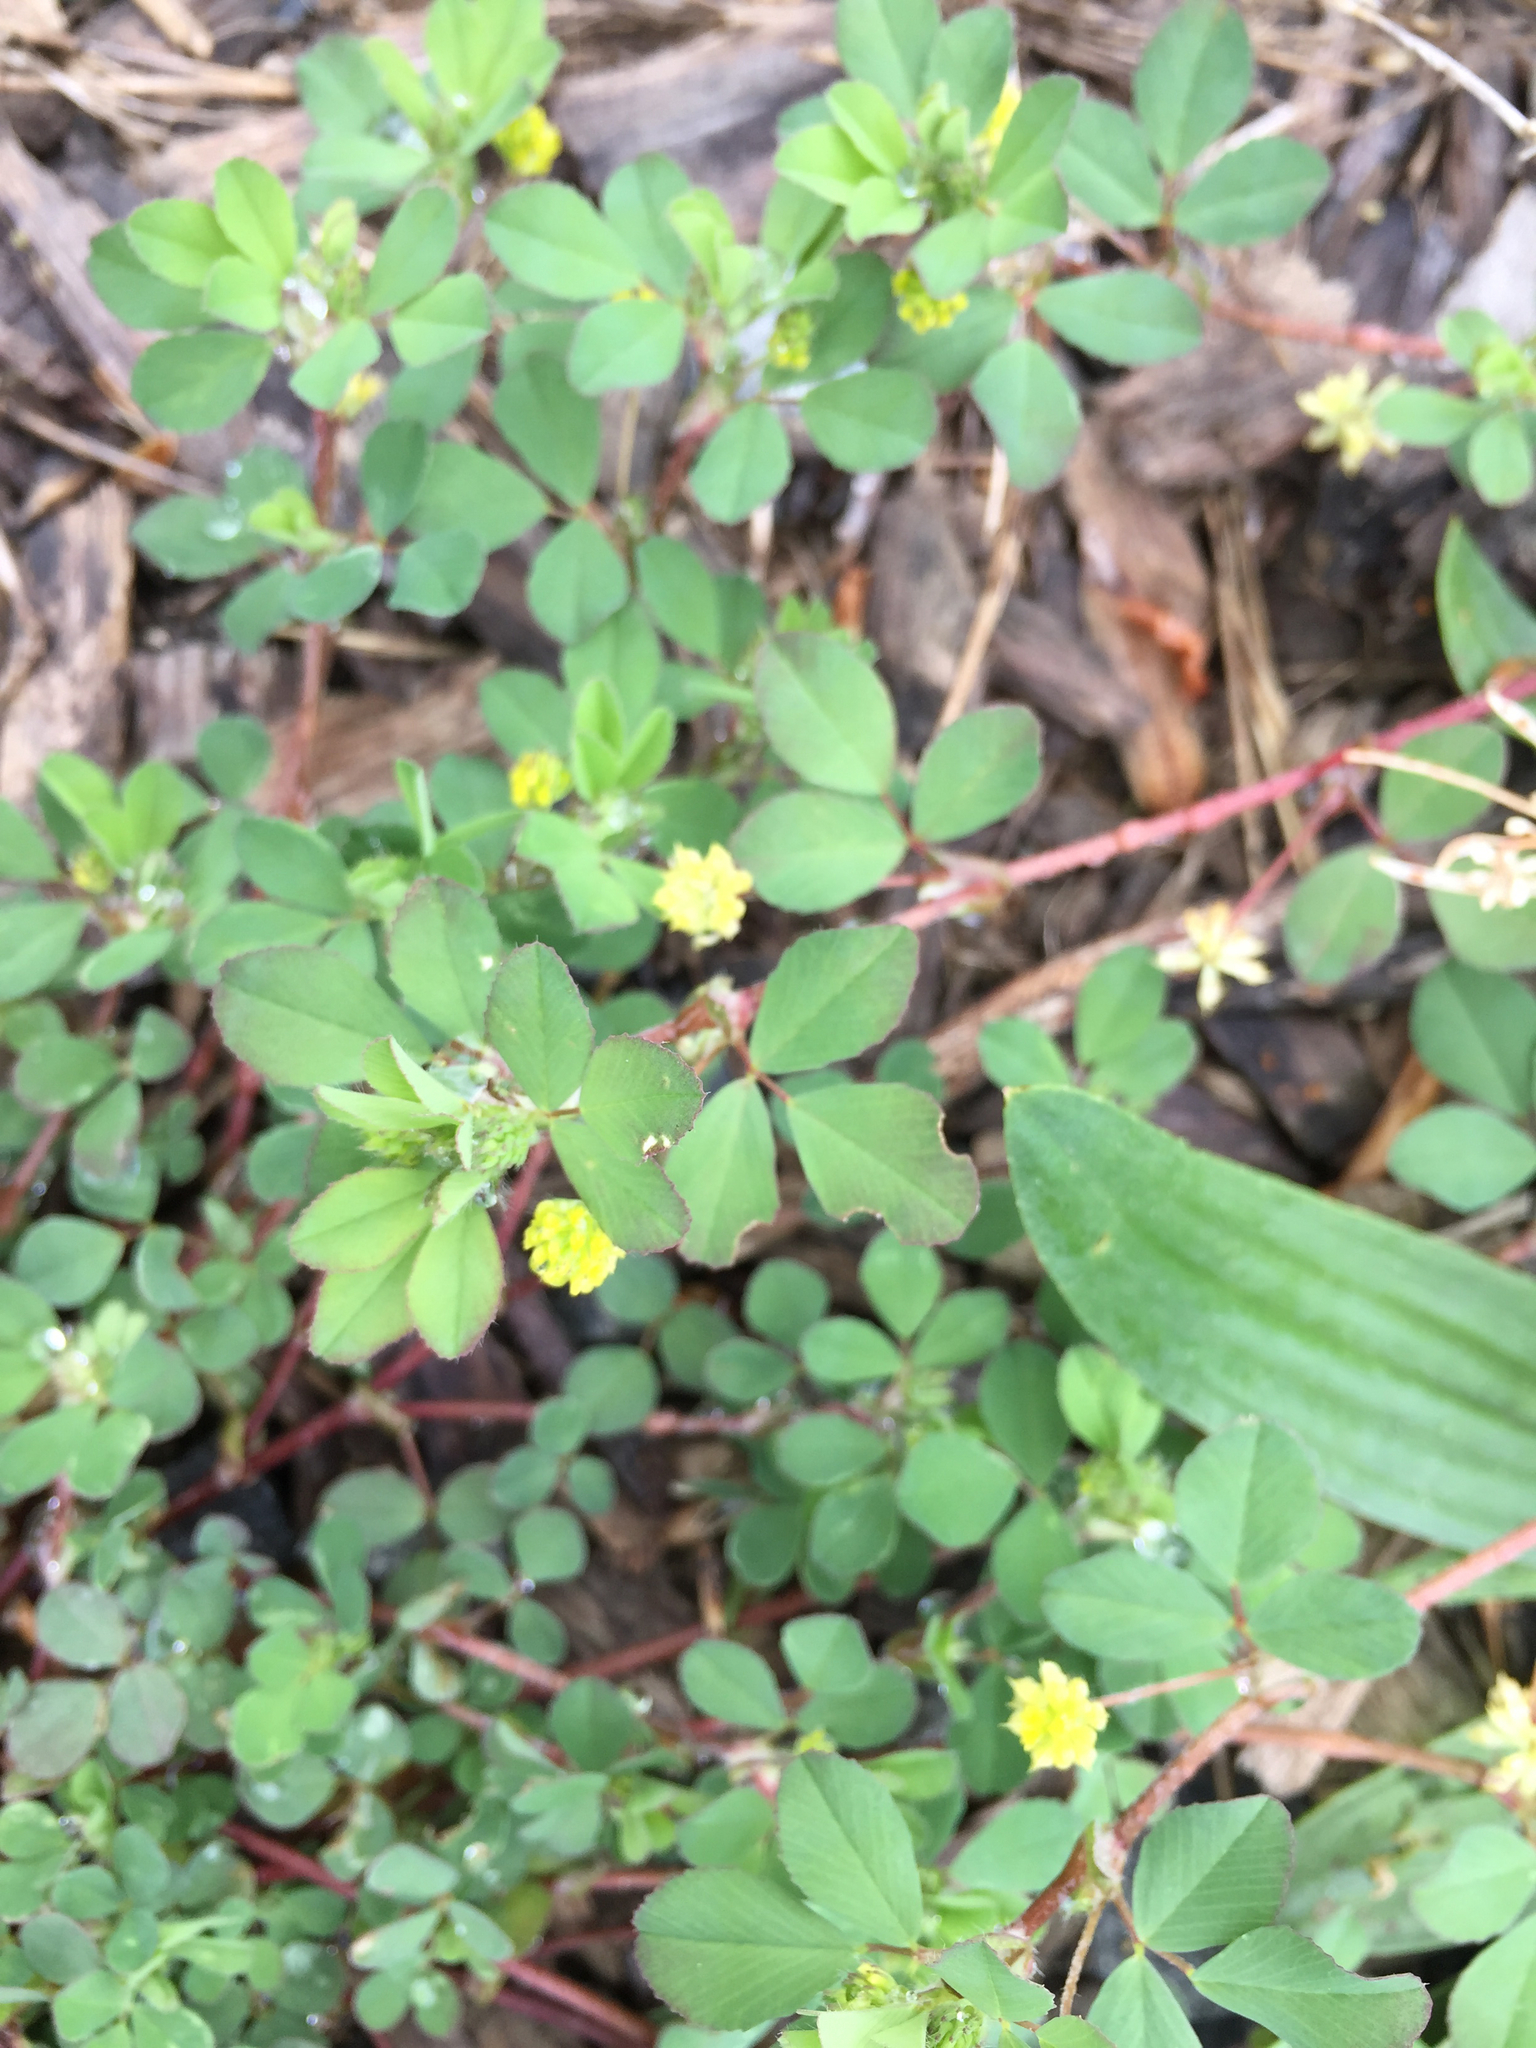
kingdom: Plantae
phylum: Tracheophyta
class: Magnoliopsida
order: Fabales
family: Fabaceae
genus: Trifolium
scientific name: Trifolium dubium
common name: Suckling clover
